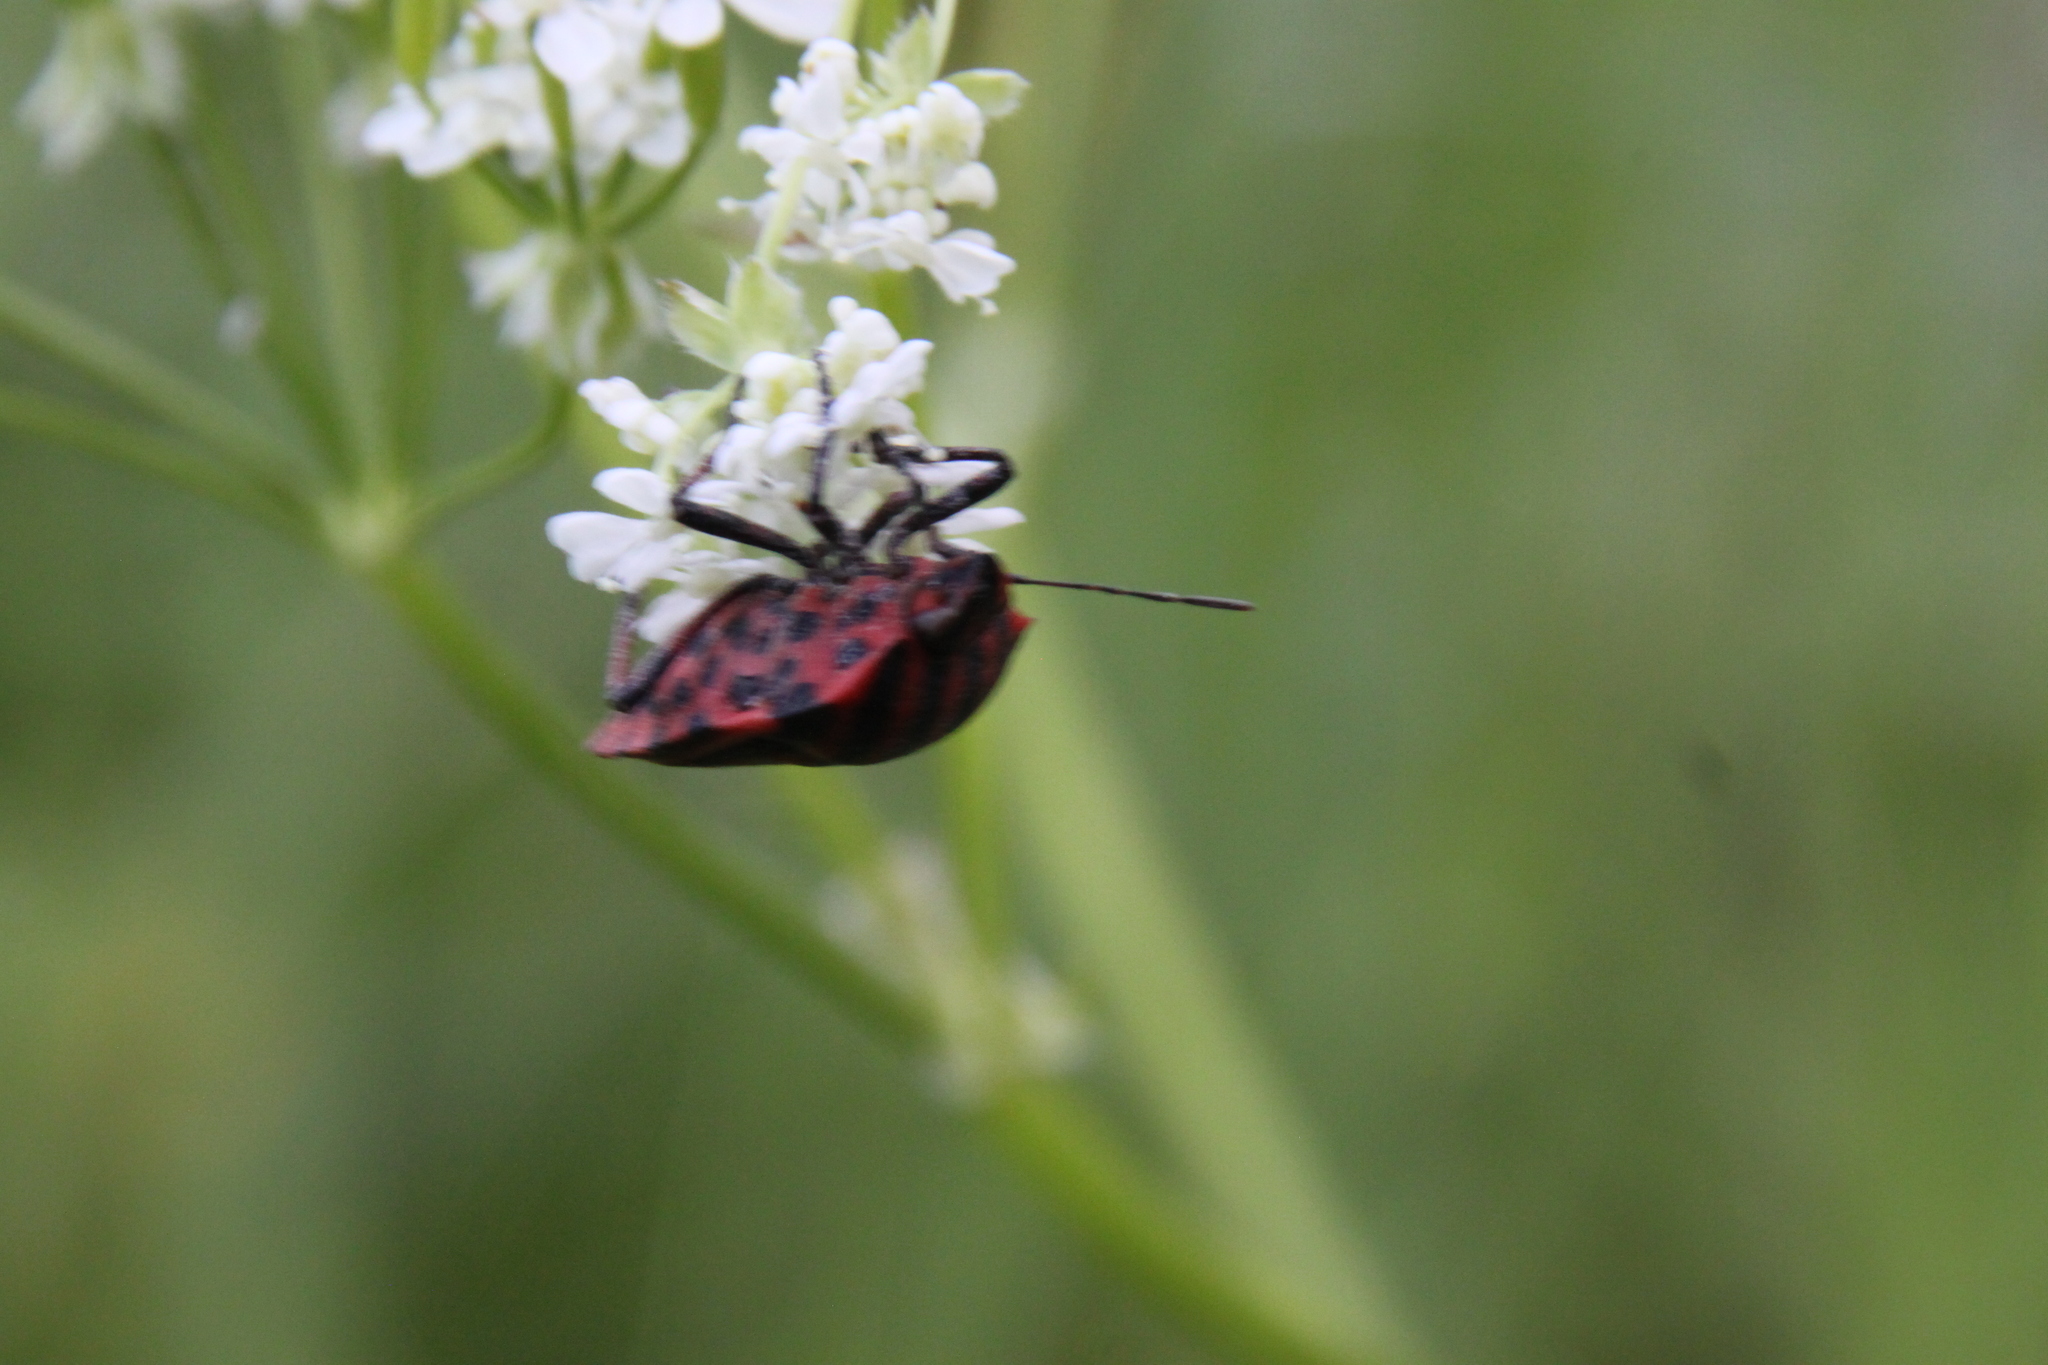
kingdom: Animalia
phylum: Arthropoda
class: Insecta
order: Hemiptera
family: Pentatomidae
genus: Graphosoma
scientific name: Graphosoma italicum
